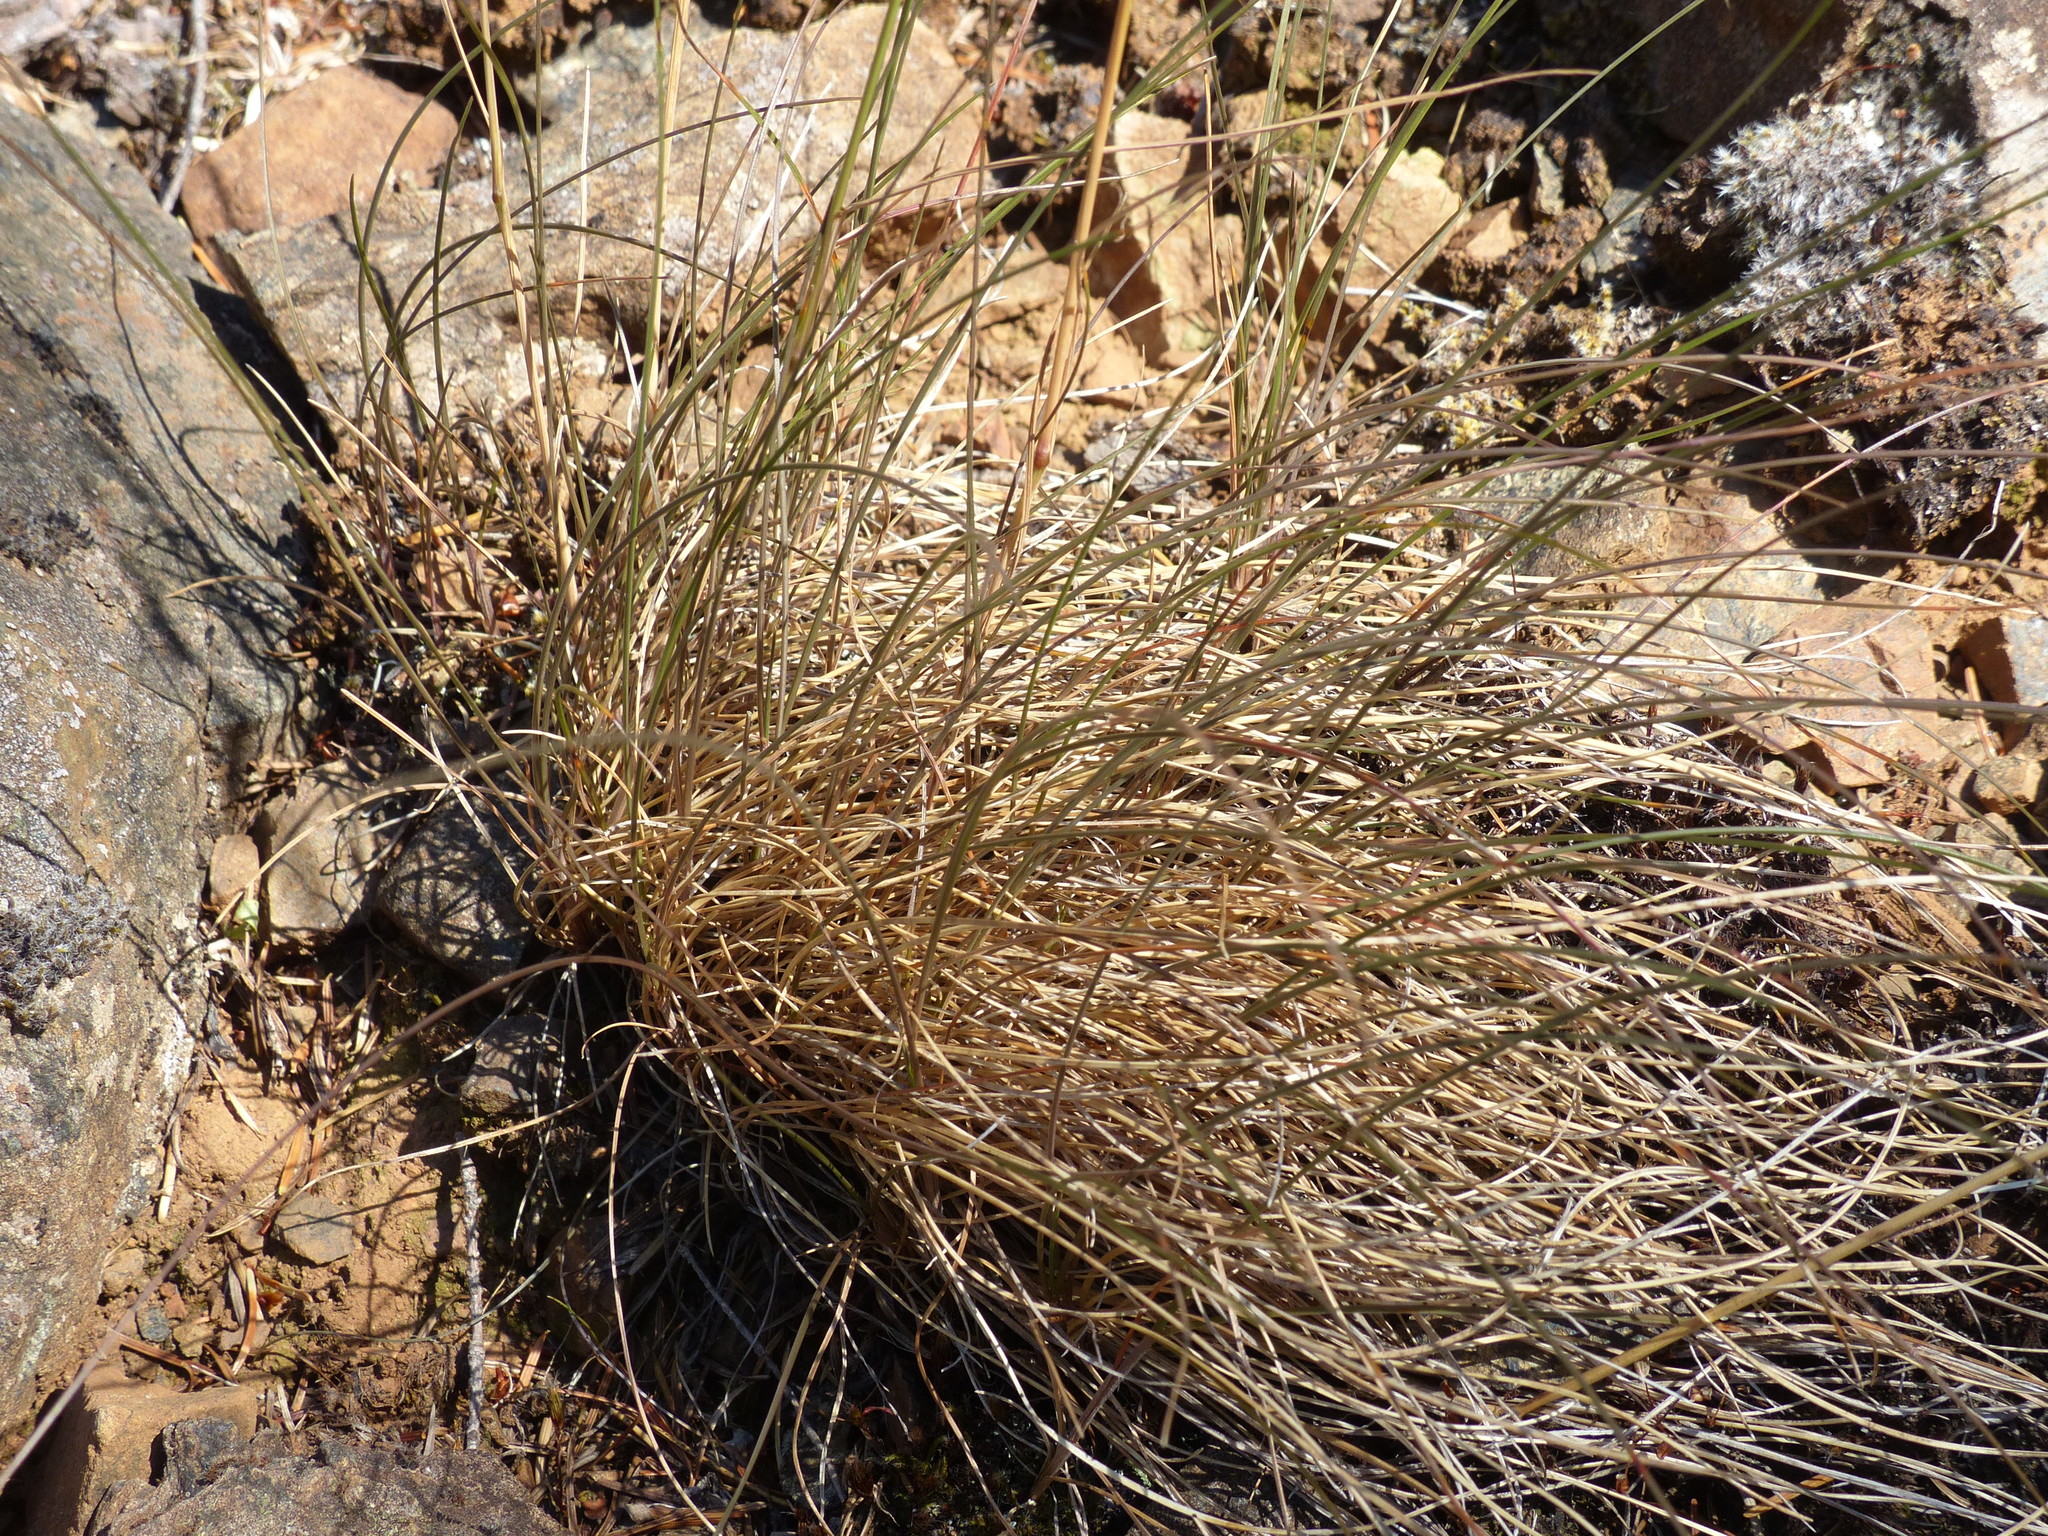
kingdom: Plantae
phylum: Tracheophyta
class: Liliopsida
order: Poales
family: Poaceae
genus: Festuca
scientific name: Festuca idahoensis
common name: Idaho fescue
